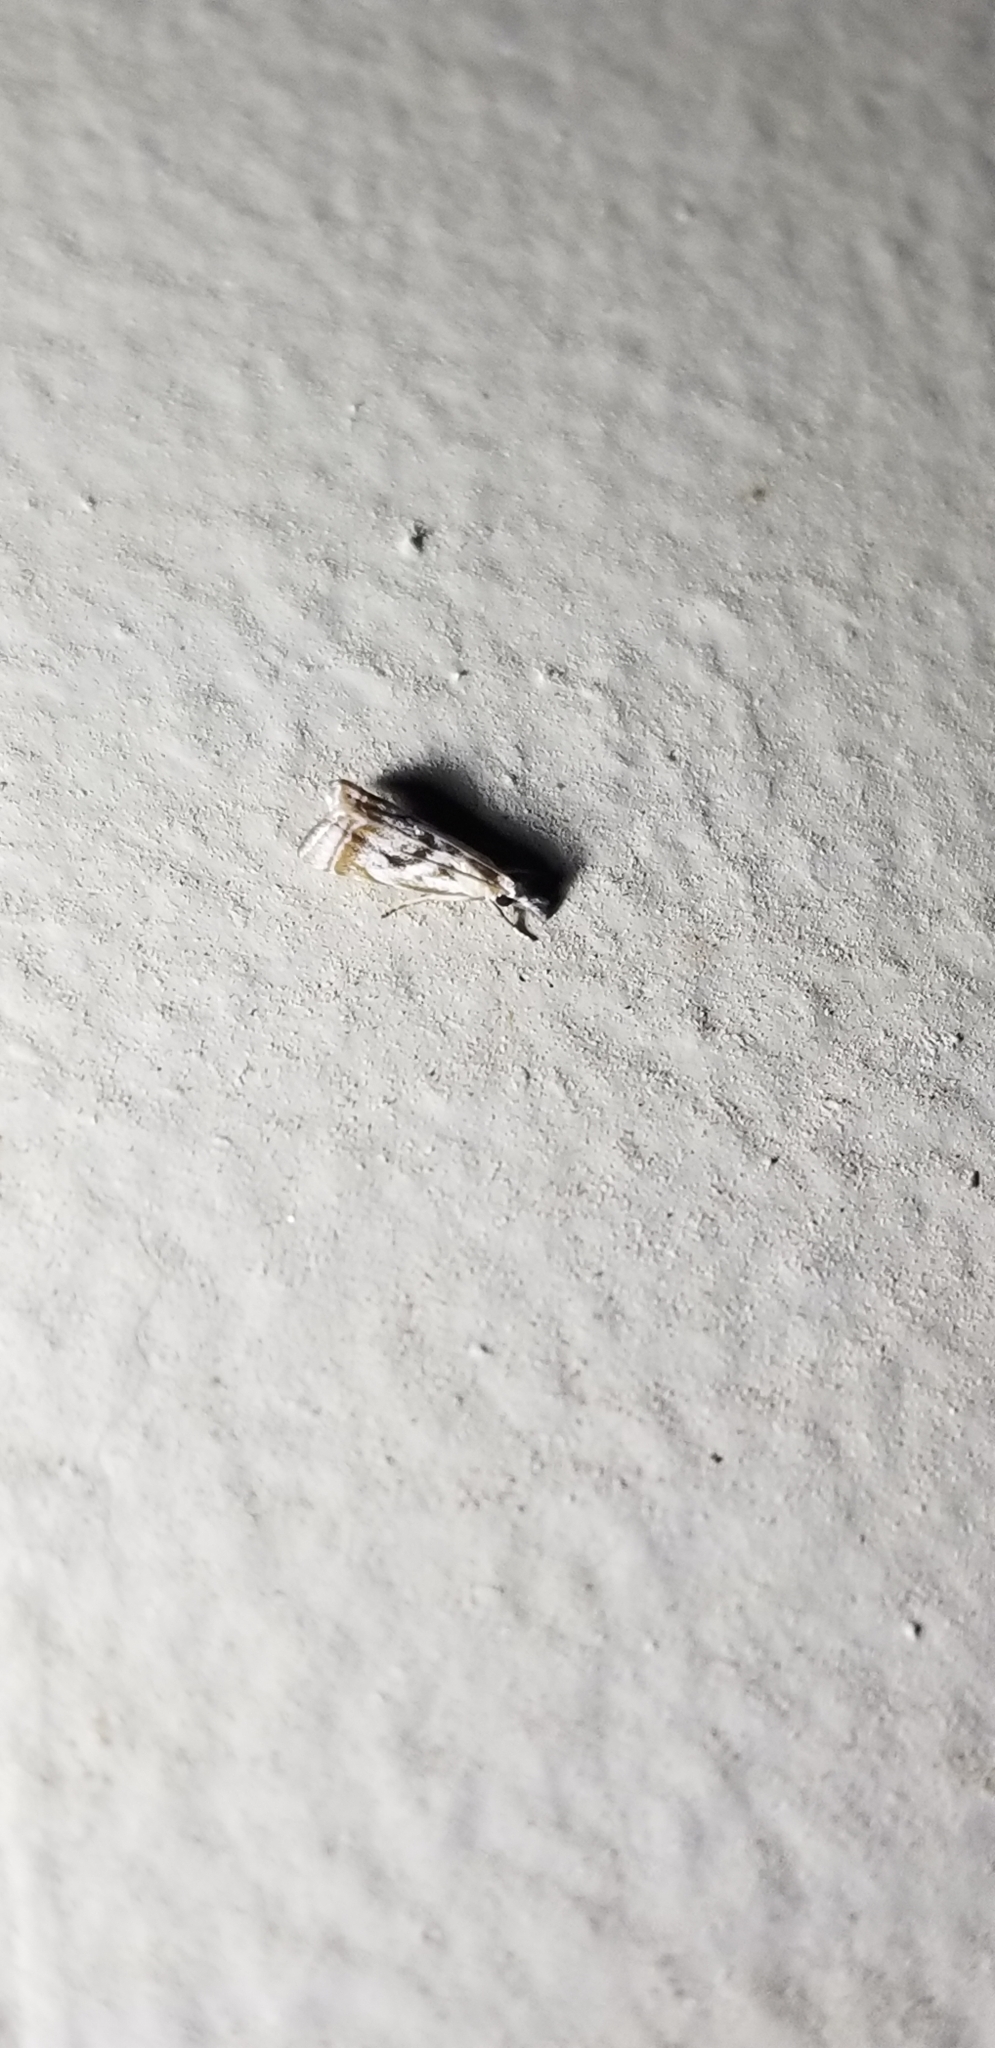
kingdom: Animalia
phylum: Arthropoda
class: Insecta
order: Lepidoptera
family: Crambidae
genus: Microcrambus
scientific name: Microcrambus elegans
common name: Elegant grass-veneer
